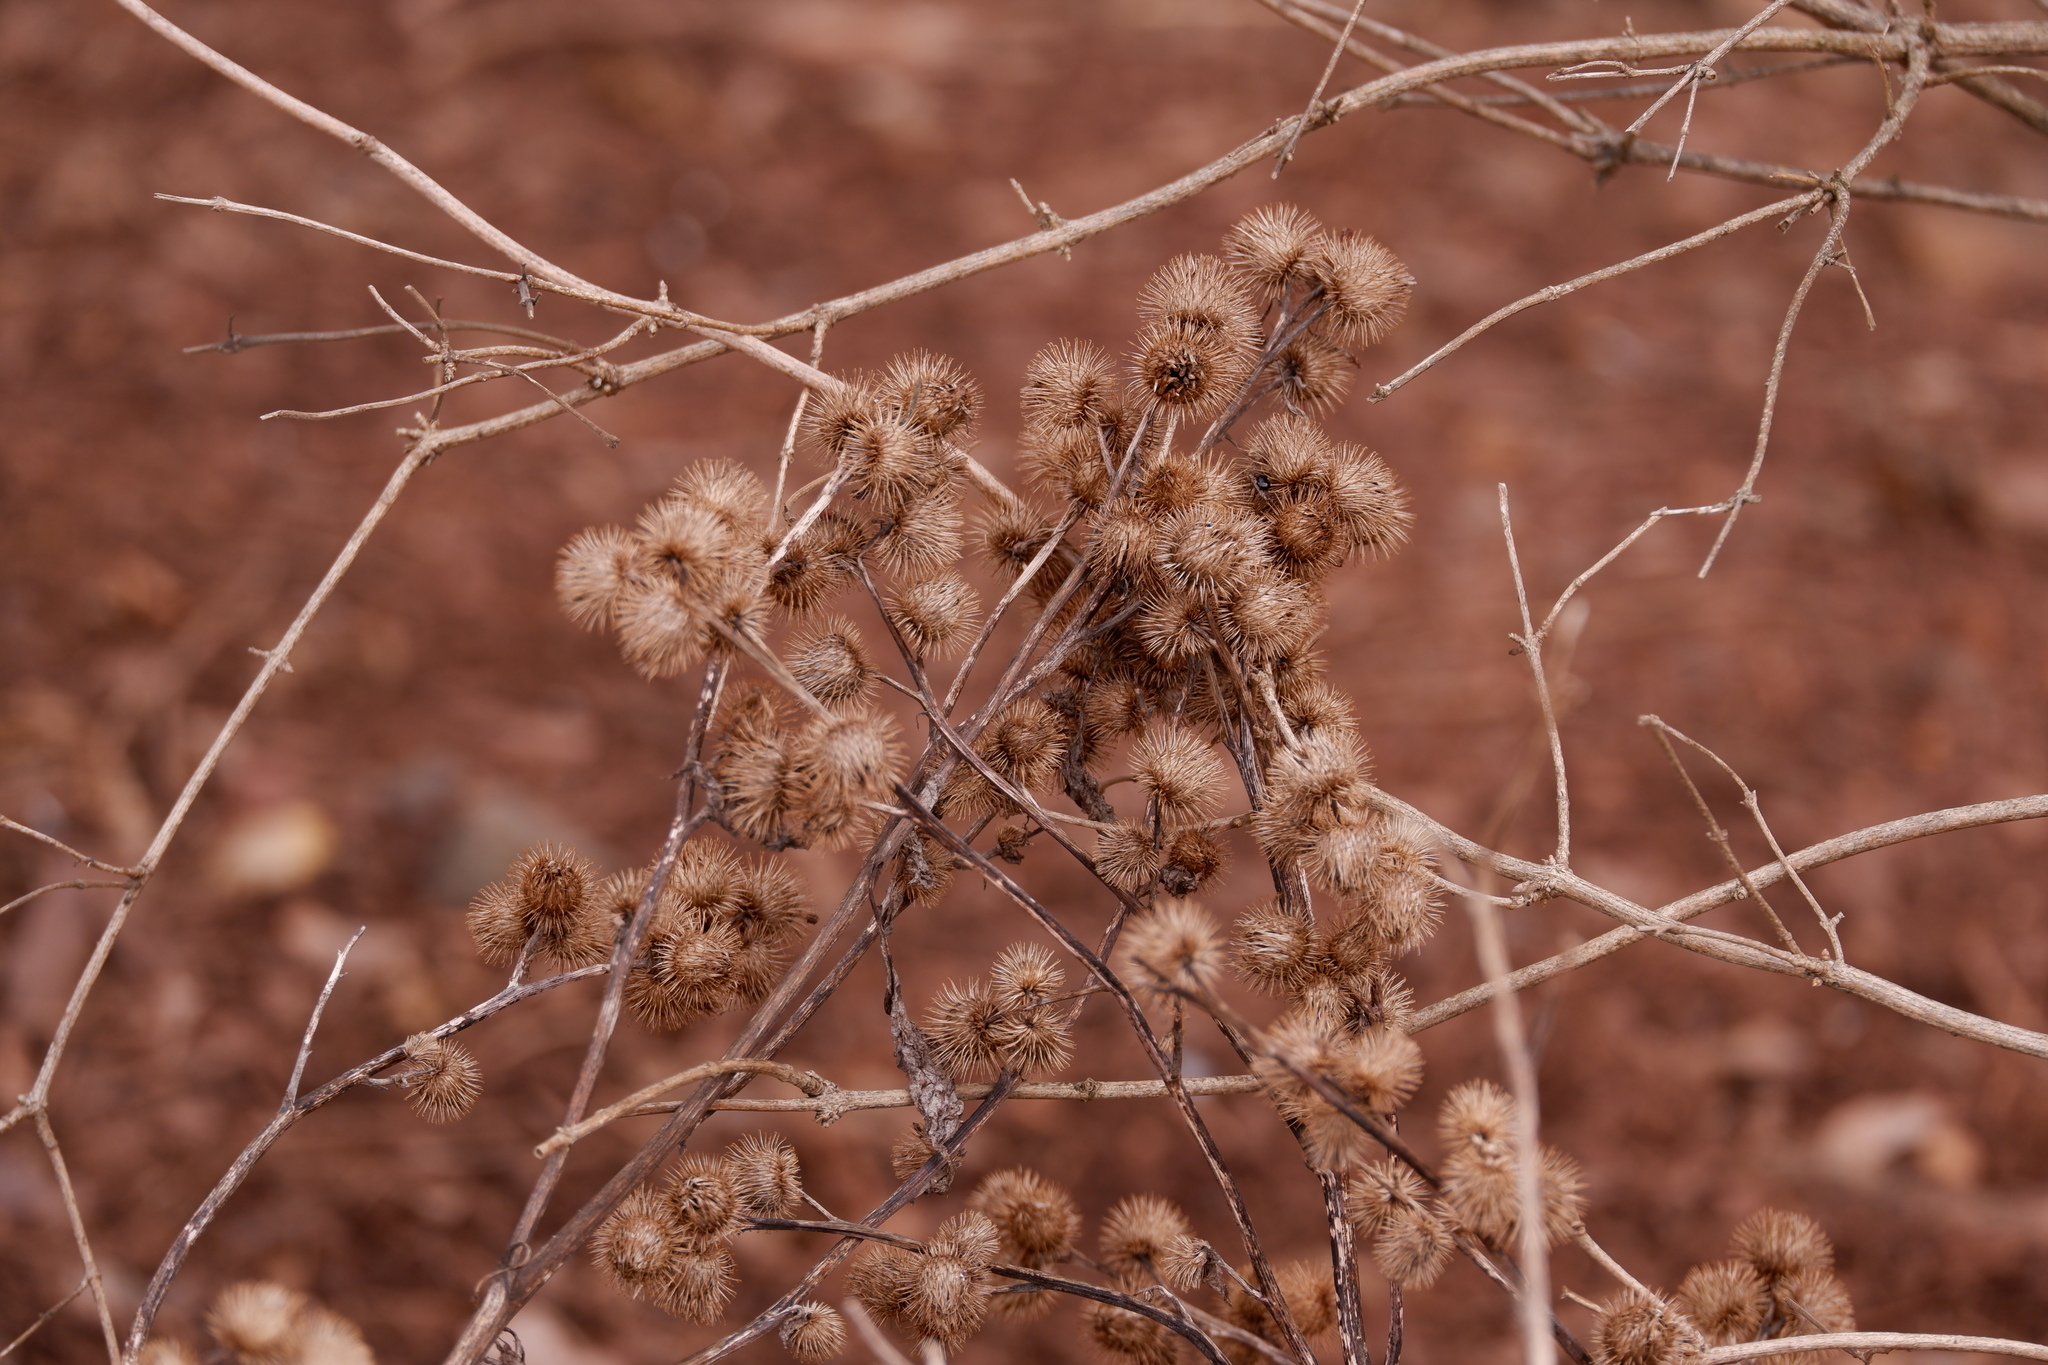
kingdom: Plantae
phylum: Tracheophyta
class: Magnoliopsida
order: Asterales
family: Asteraceae
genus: Arctium
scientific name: Arctium minus
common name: Lesser burdock
